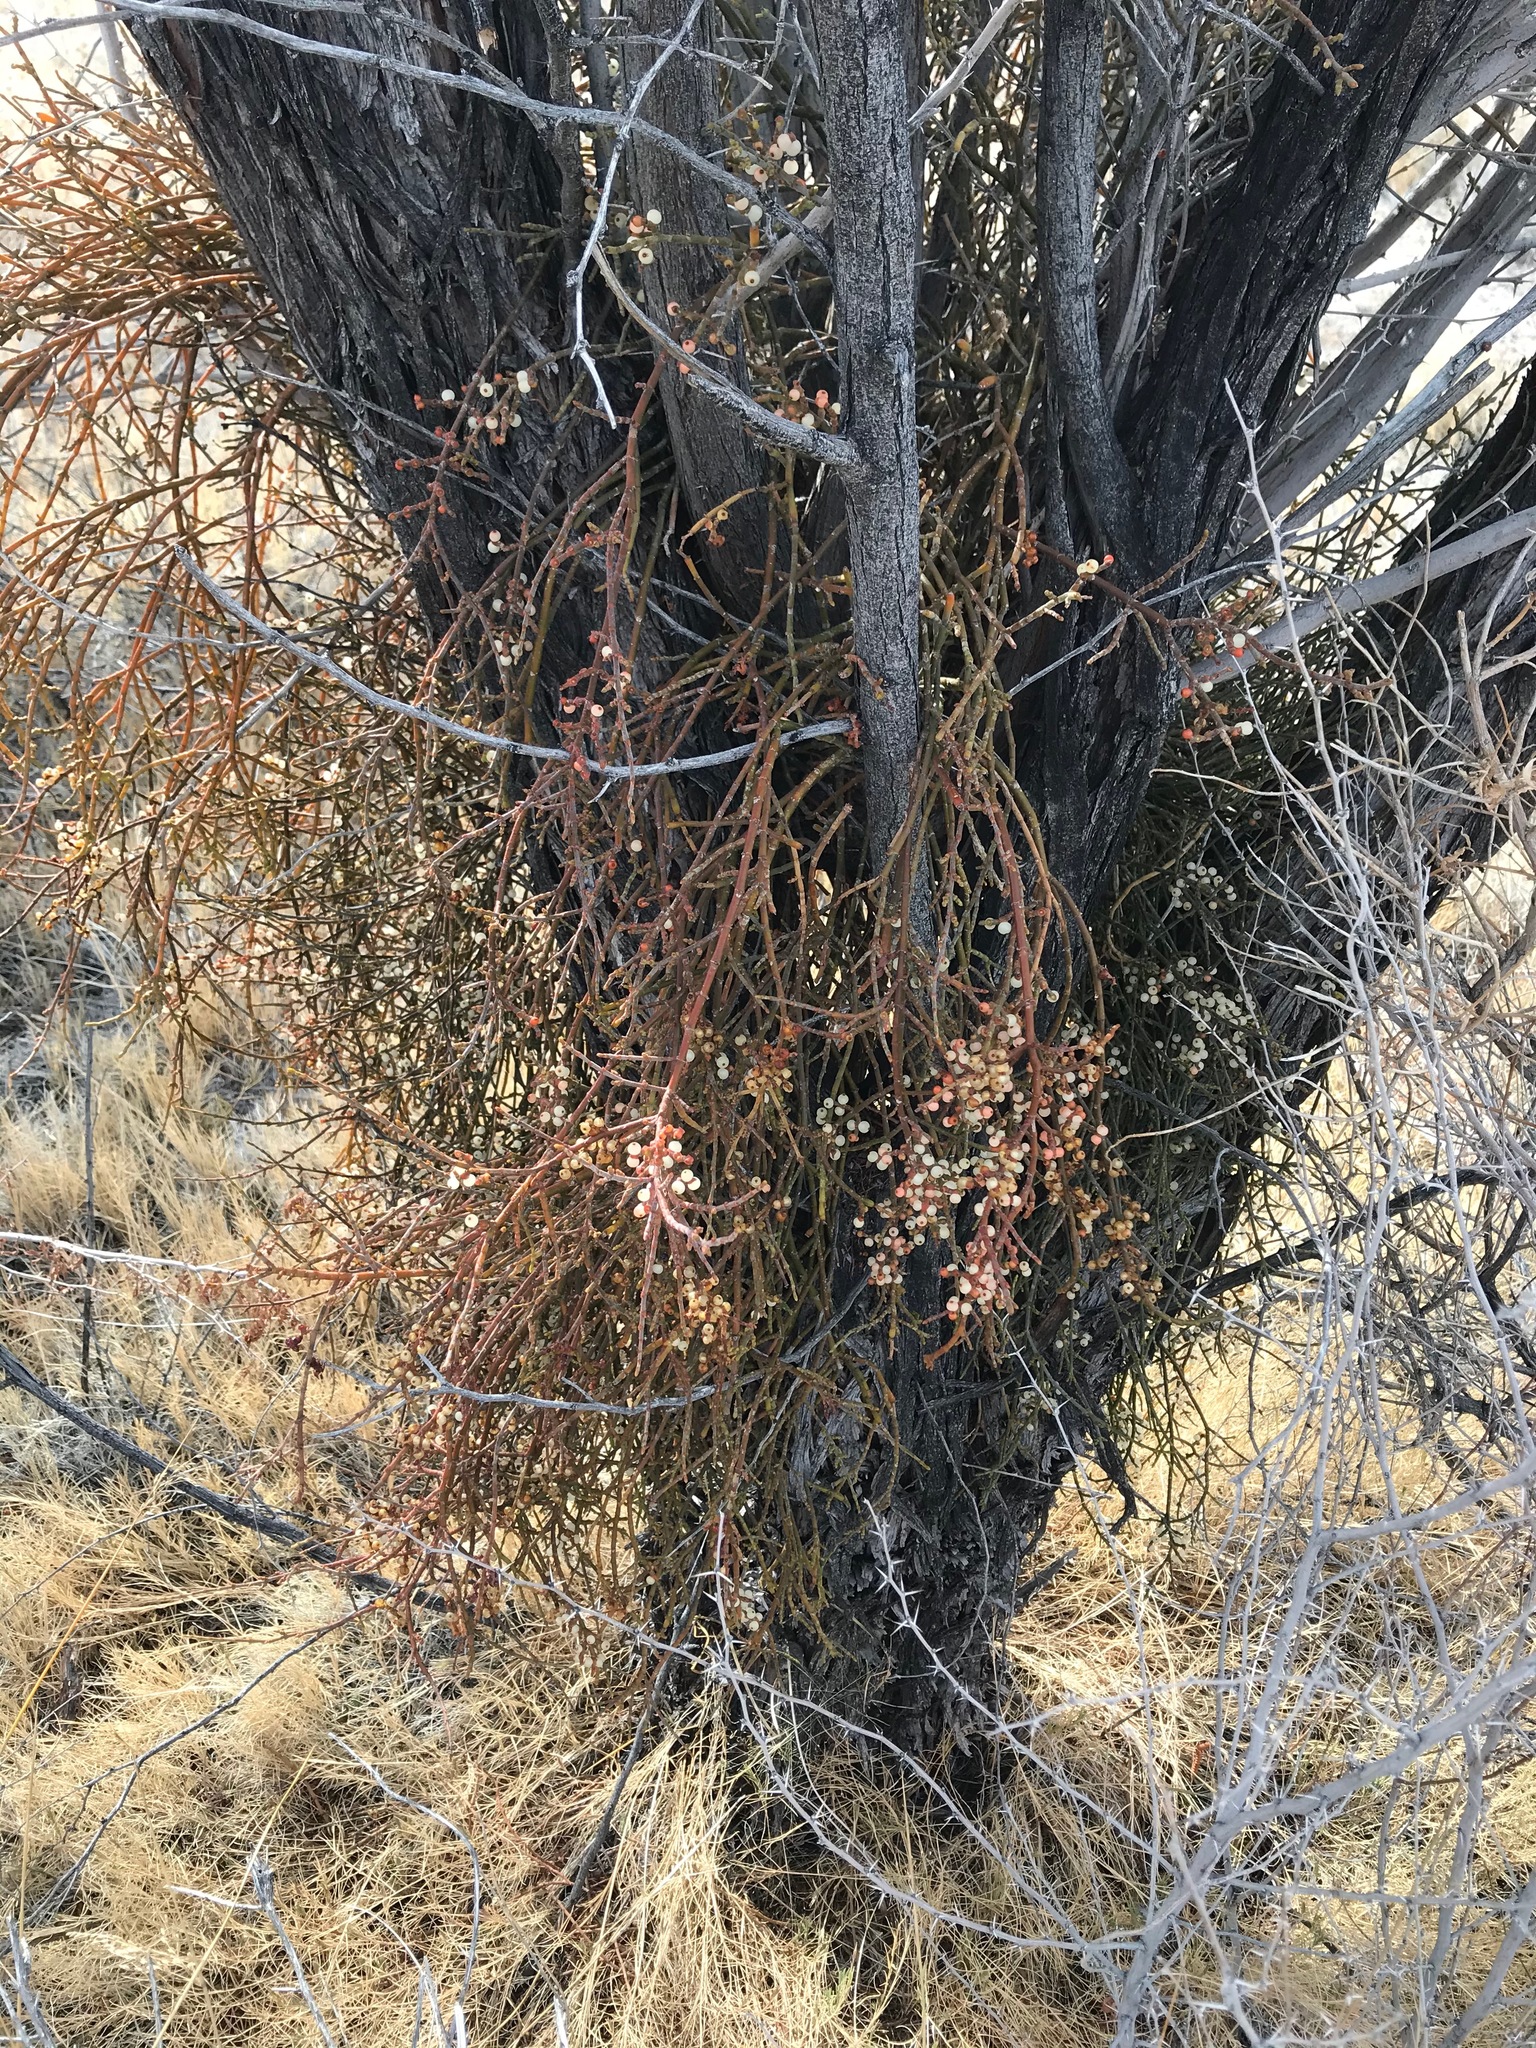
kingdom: Plantae
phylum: Tracheophyta
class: Magnoliopsida
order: Santalales
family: Viscaceae
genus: Phoradendron
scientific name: Phoradendron californicum
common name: Acacia mistletoe
